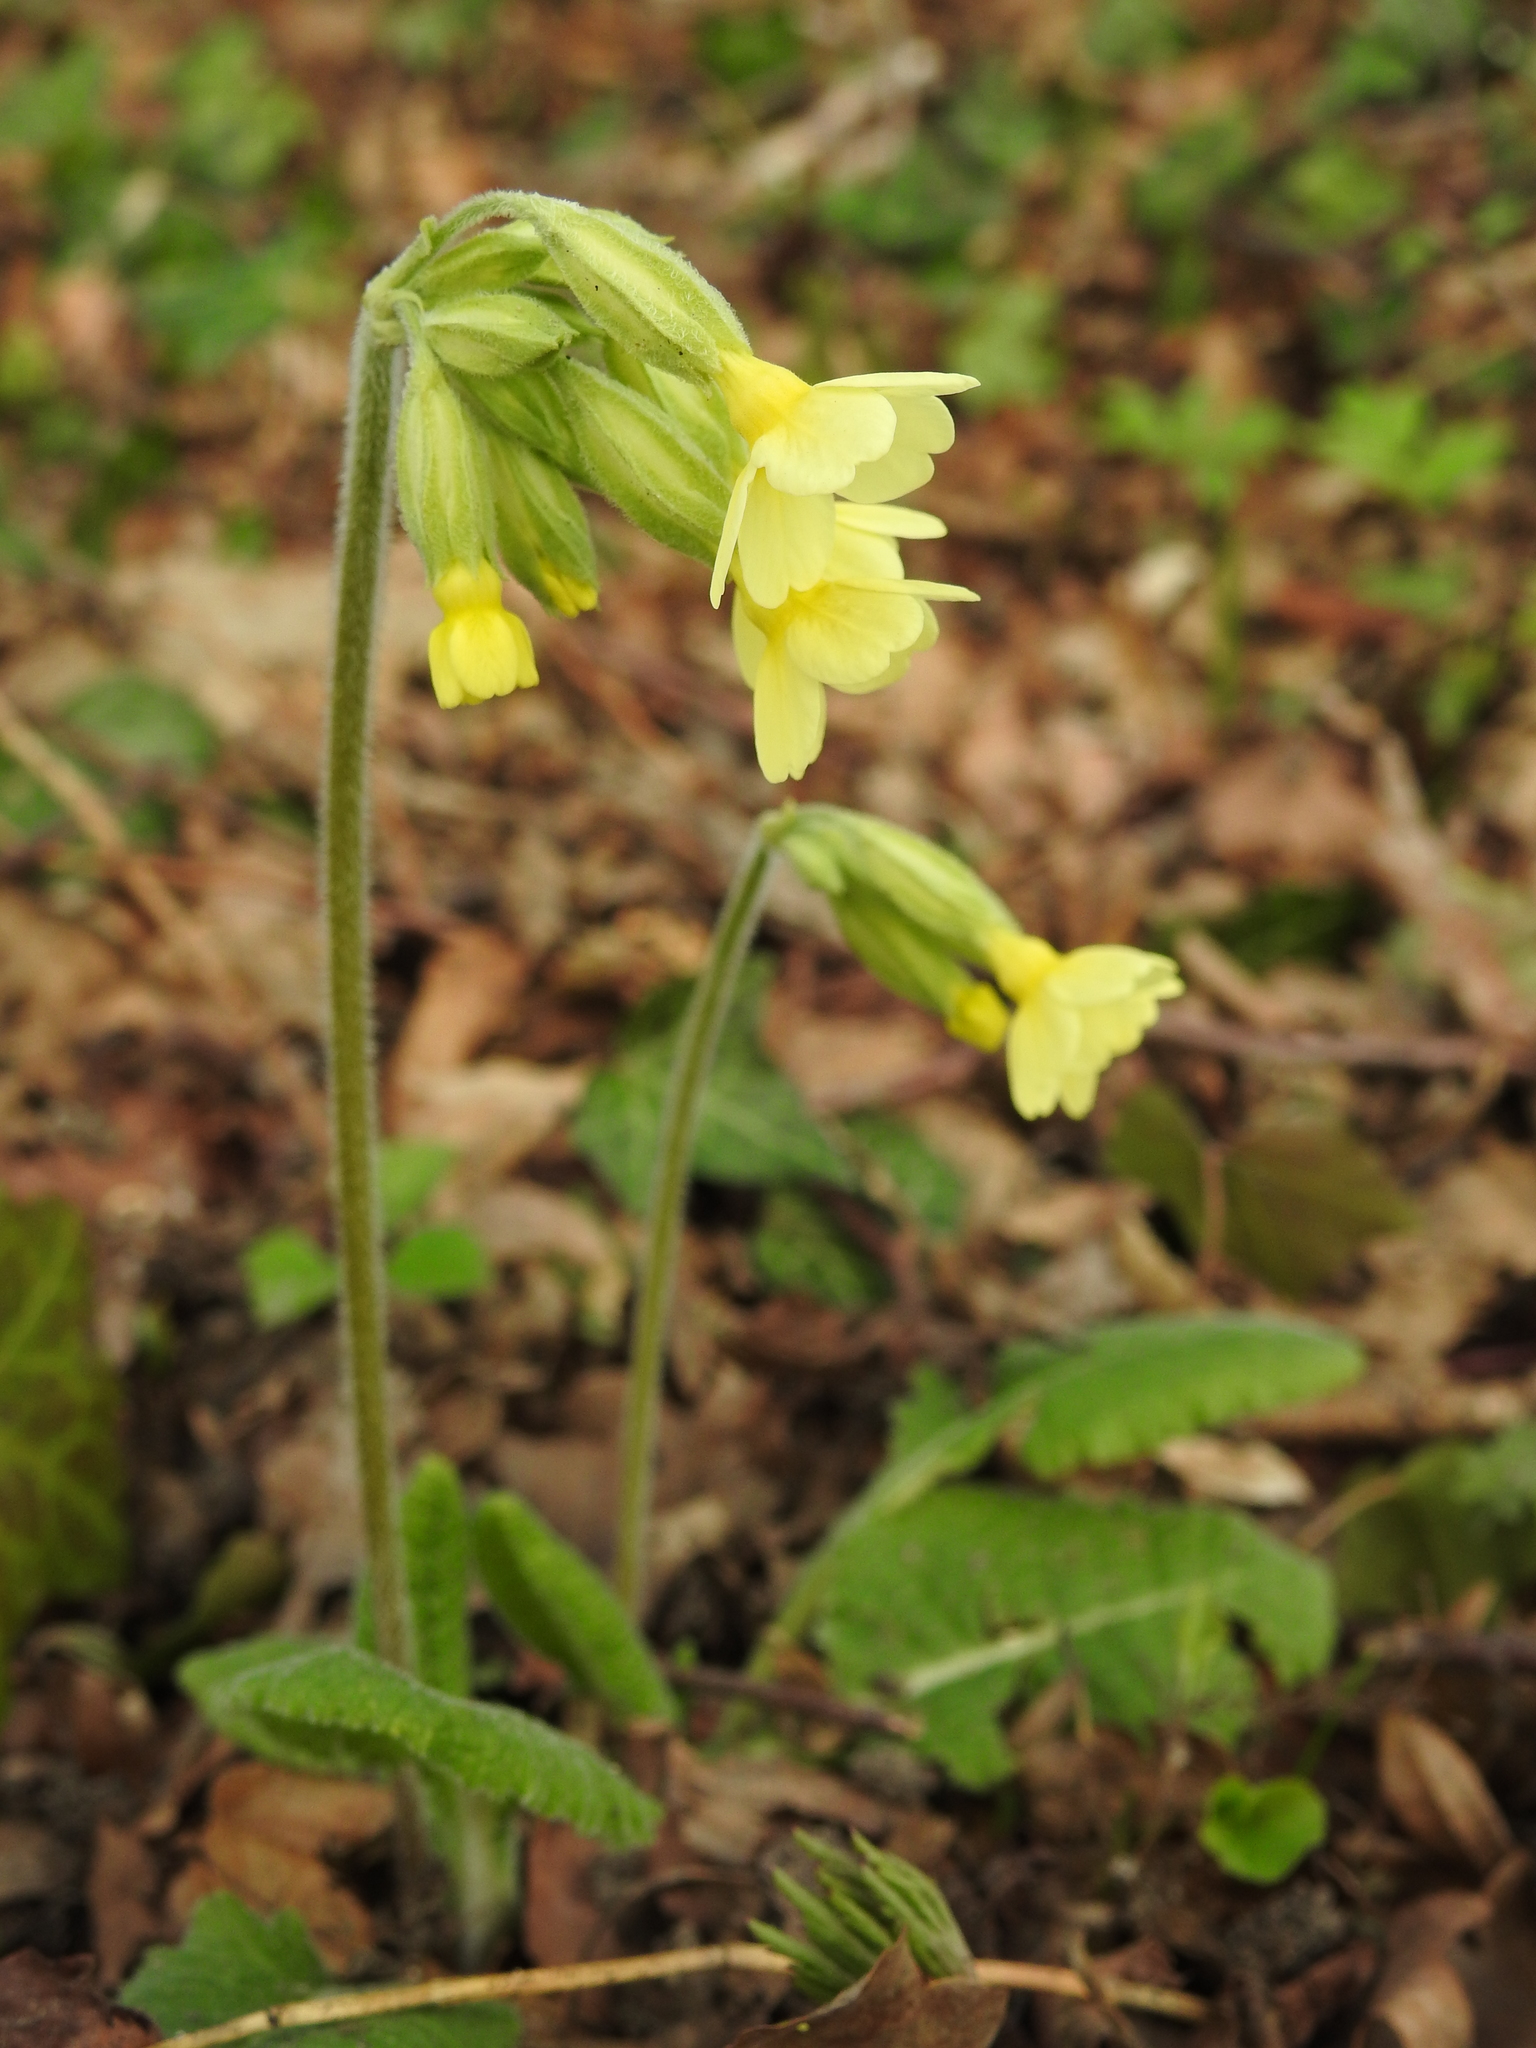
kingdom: Plantae
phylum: Tracheophyta
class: Magnoliopsida
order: Ericales
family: Primulaceae
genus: Primula
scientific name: Primula elatior
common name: Oxlip
